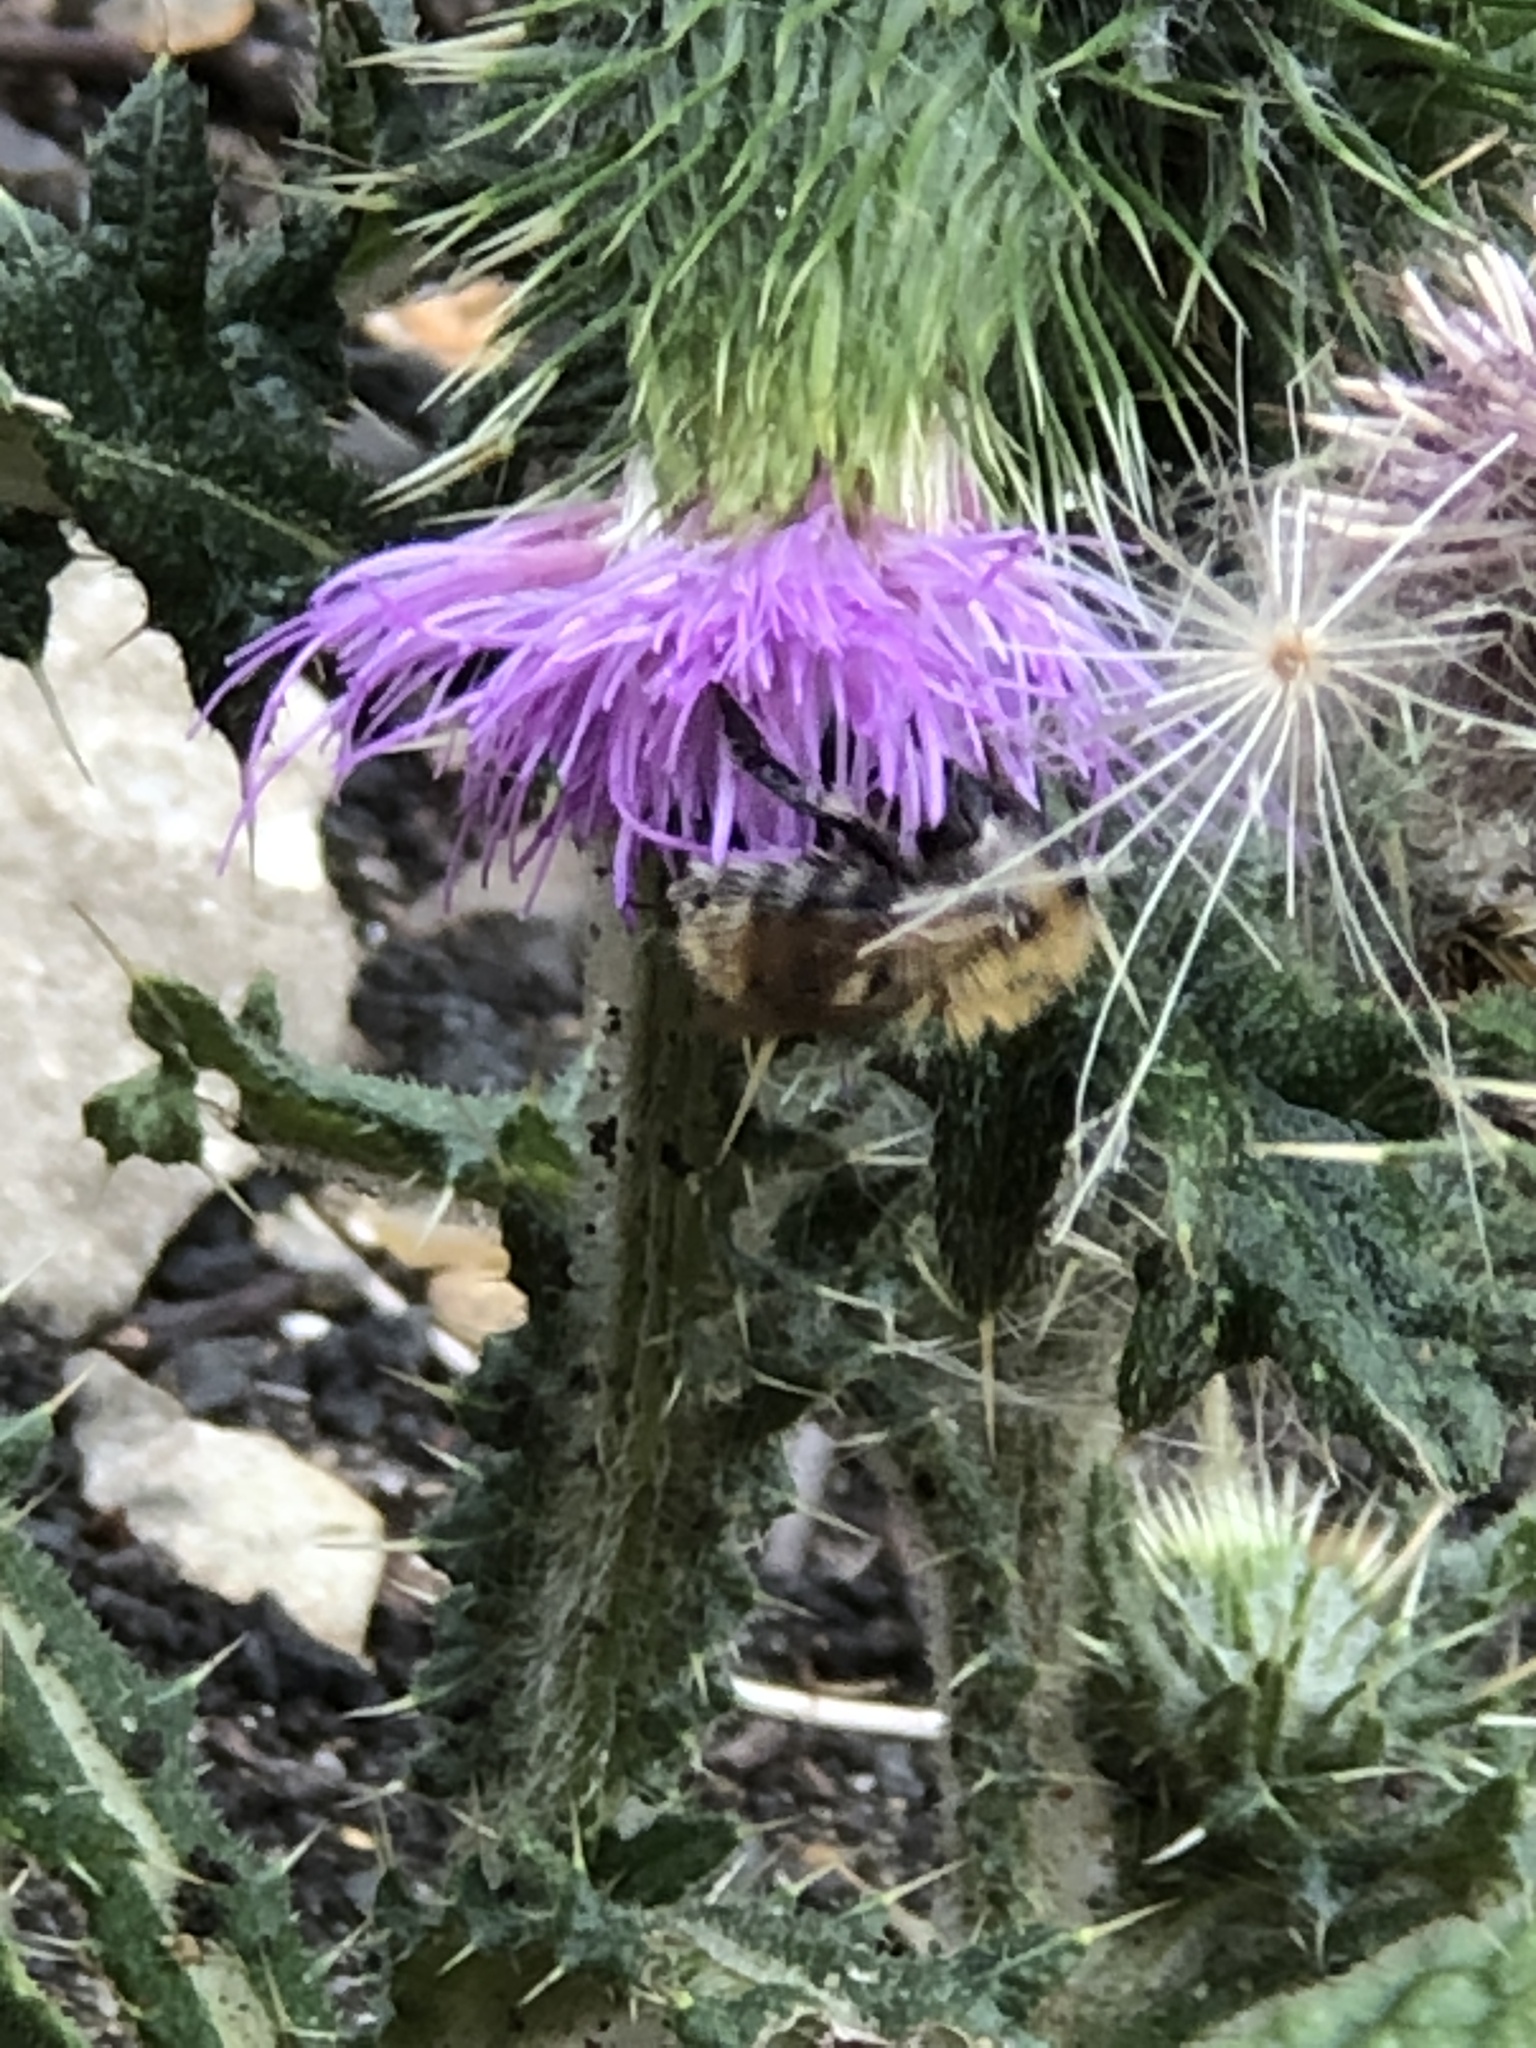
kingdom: Animalia
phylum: Arthropoda
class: Insecta
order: Hymenoptera
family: Apidae
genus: Bombus
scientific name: Bombus pascuorum
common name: Common carder bee
